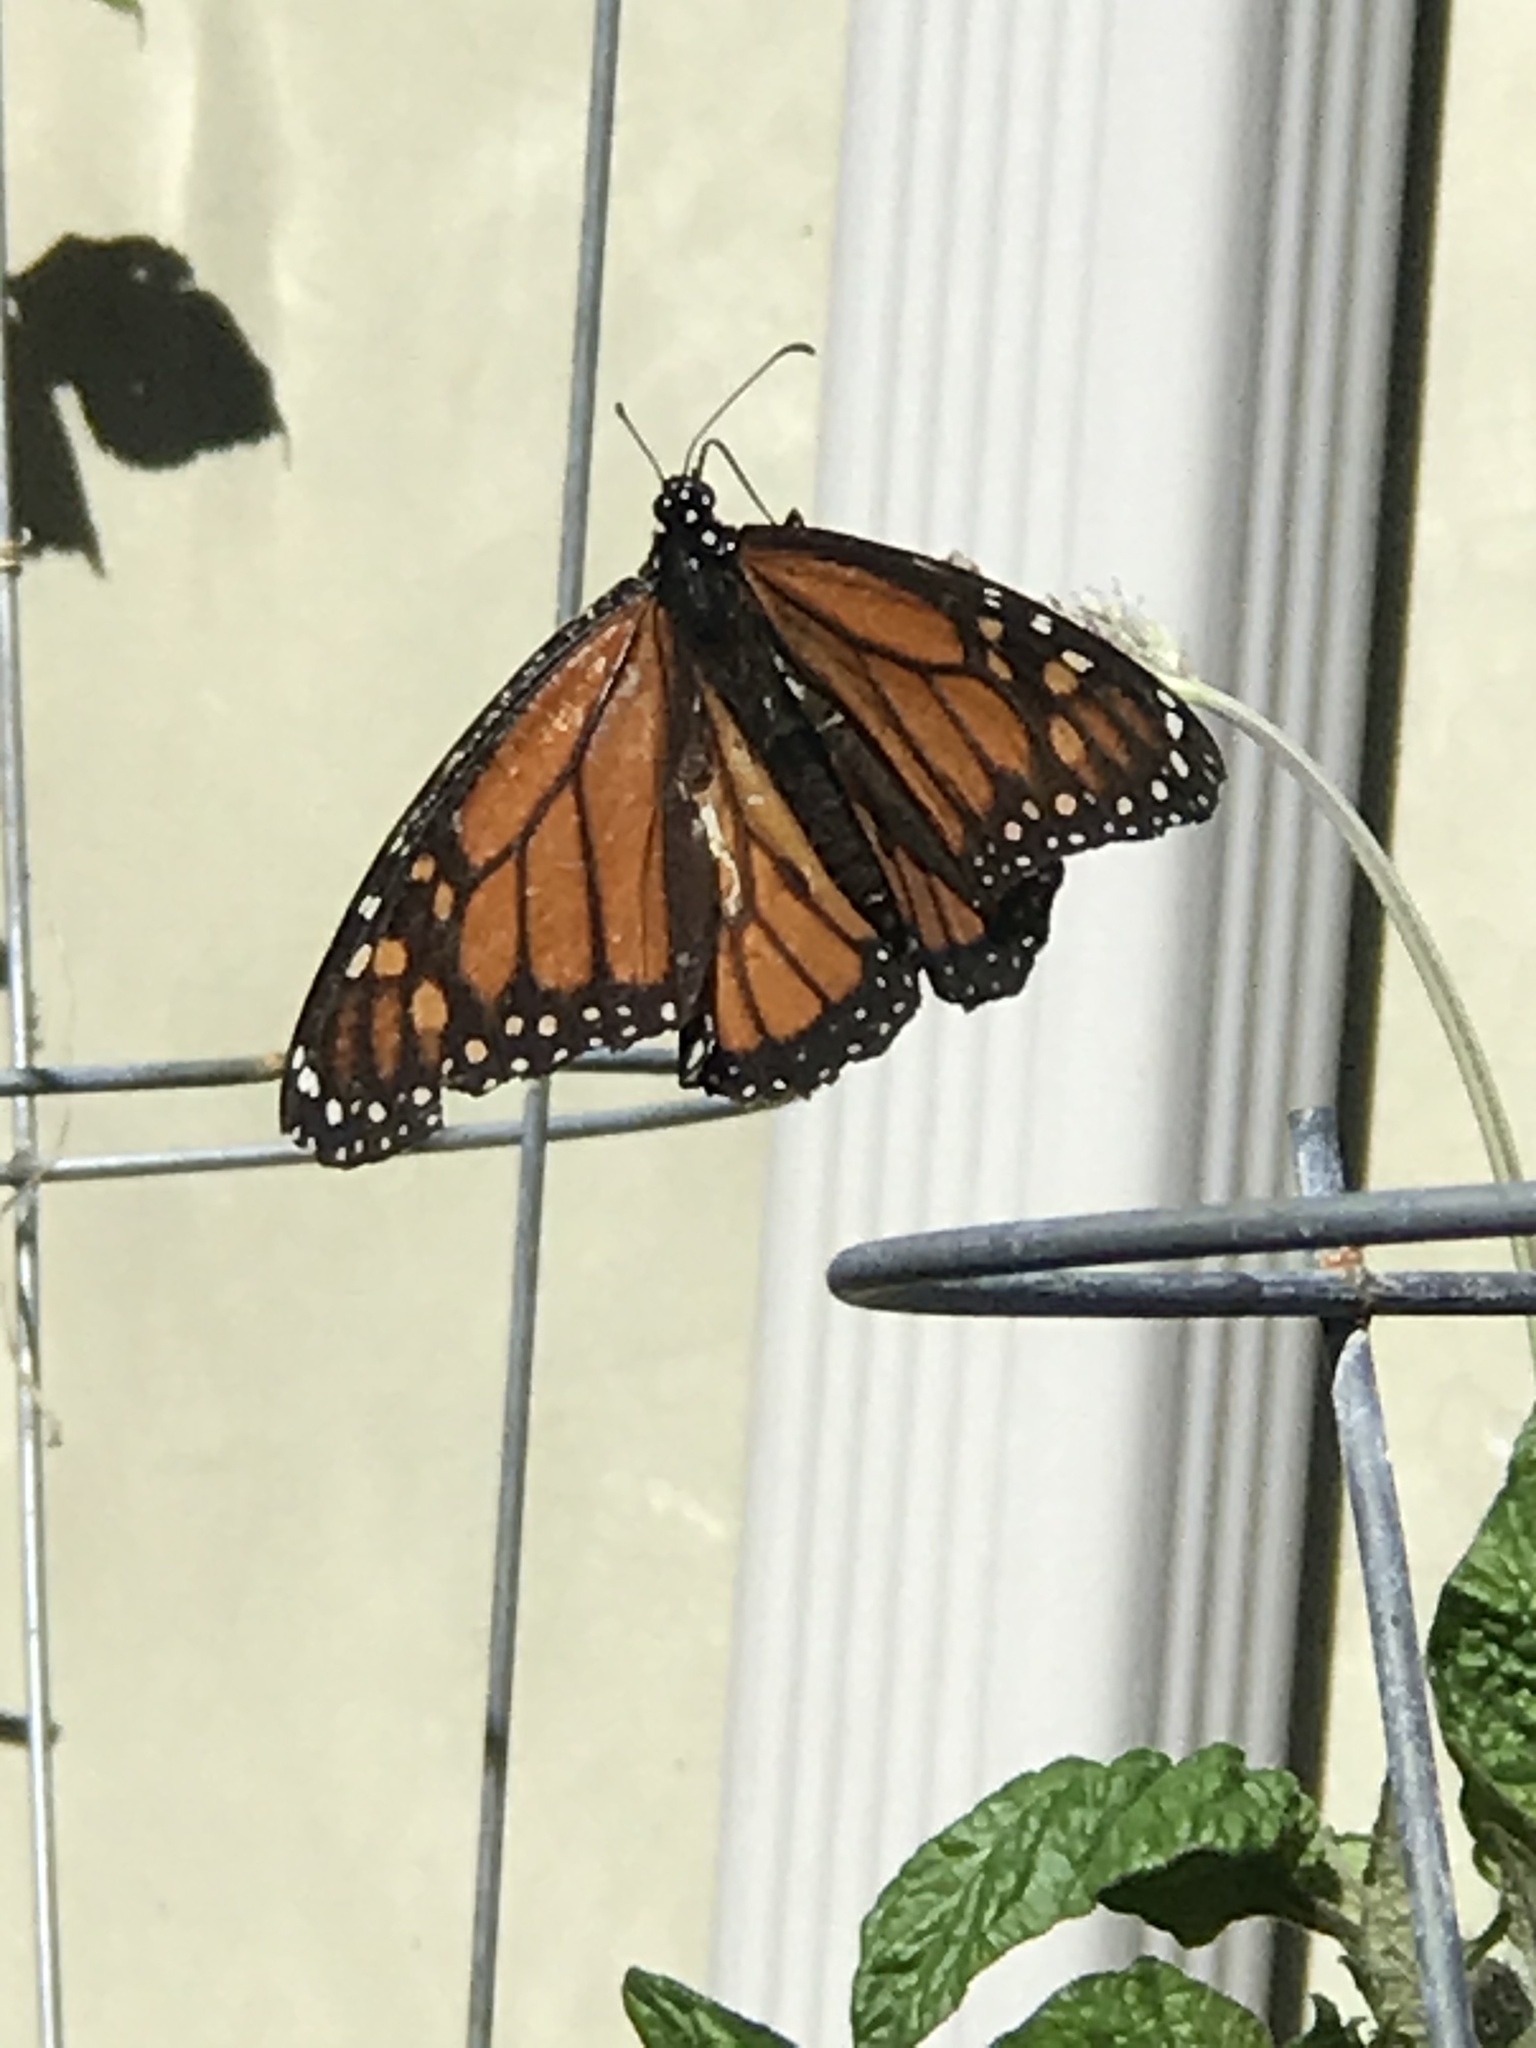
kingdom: Animalia
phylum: Arthropoda
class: Insecta
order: Lepidoptera
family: Nymphalidae
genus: Danaus
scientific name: Danaus plexippus
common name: Monarch
